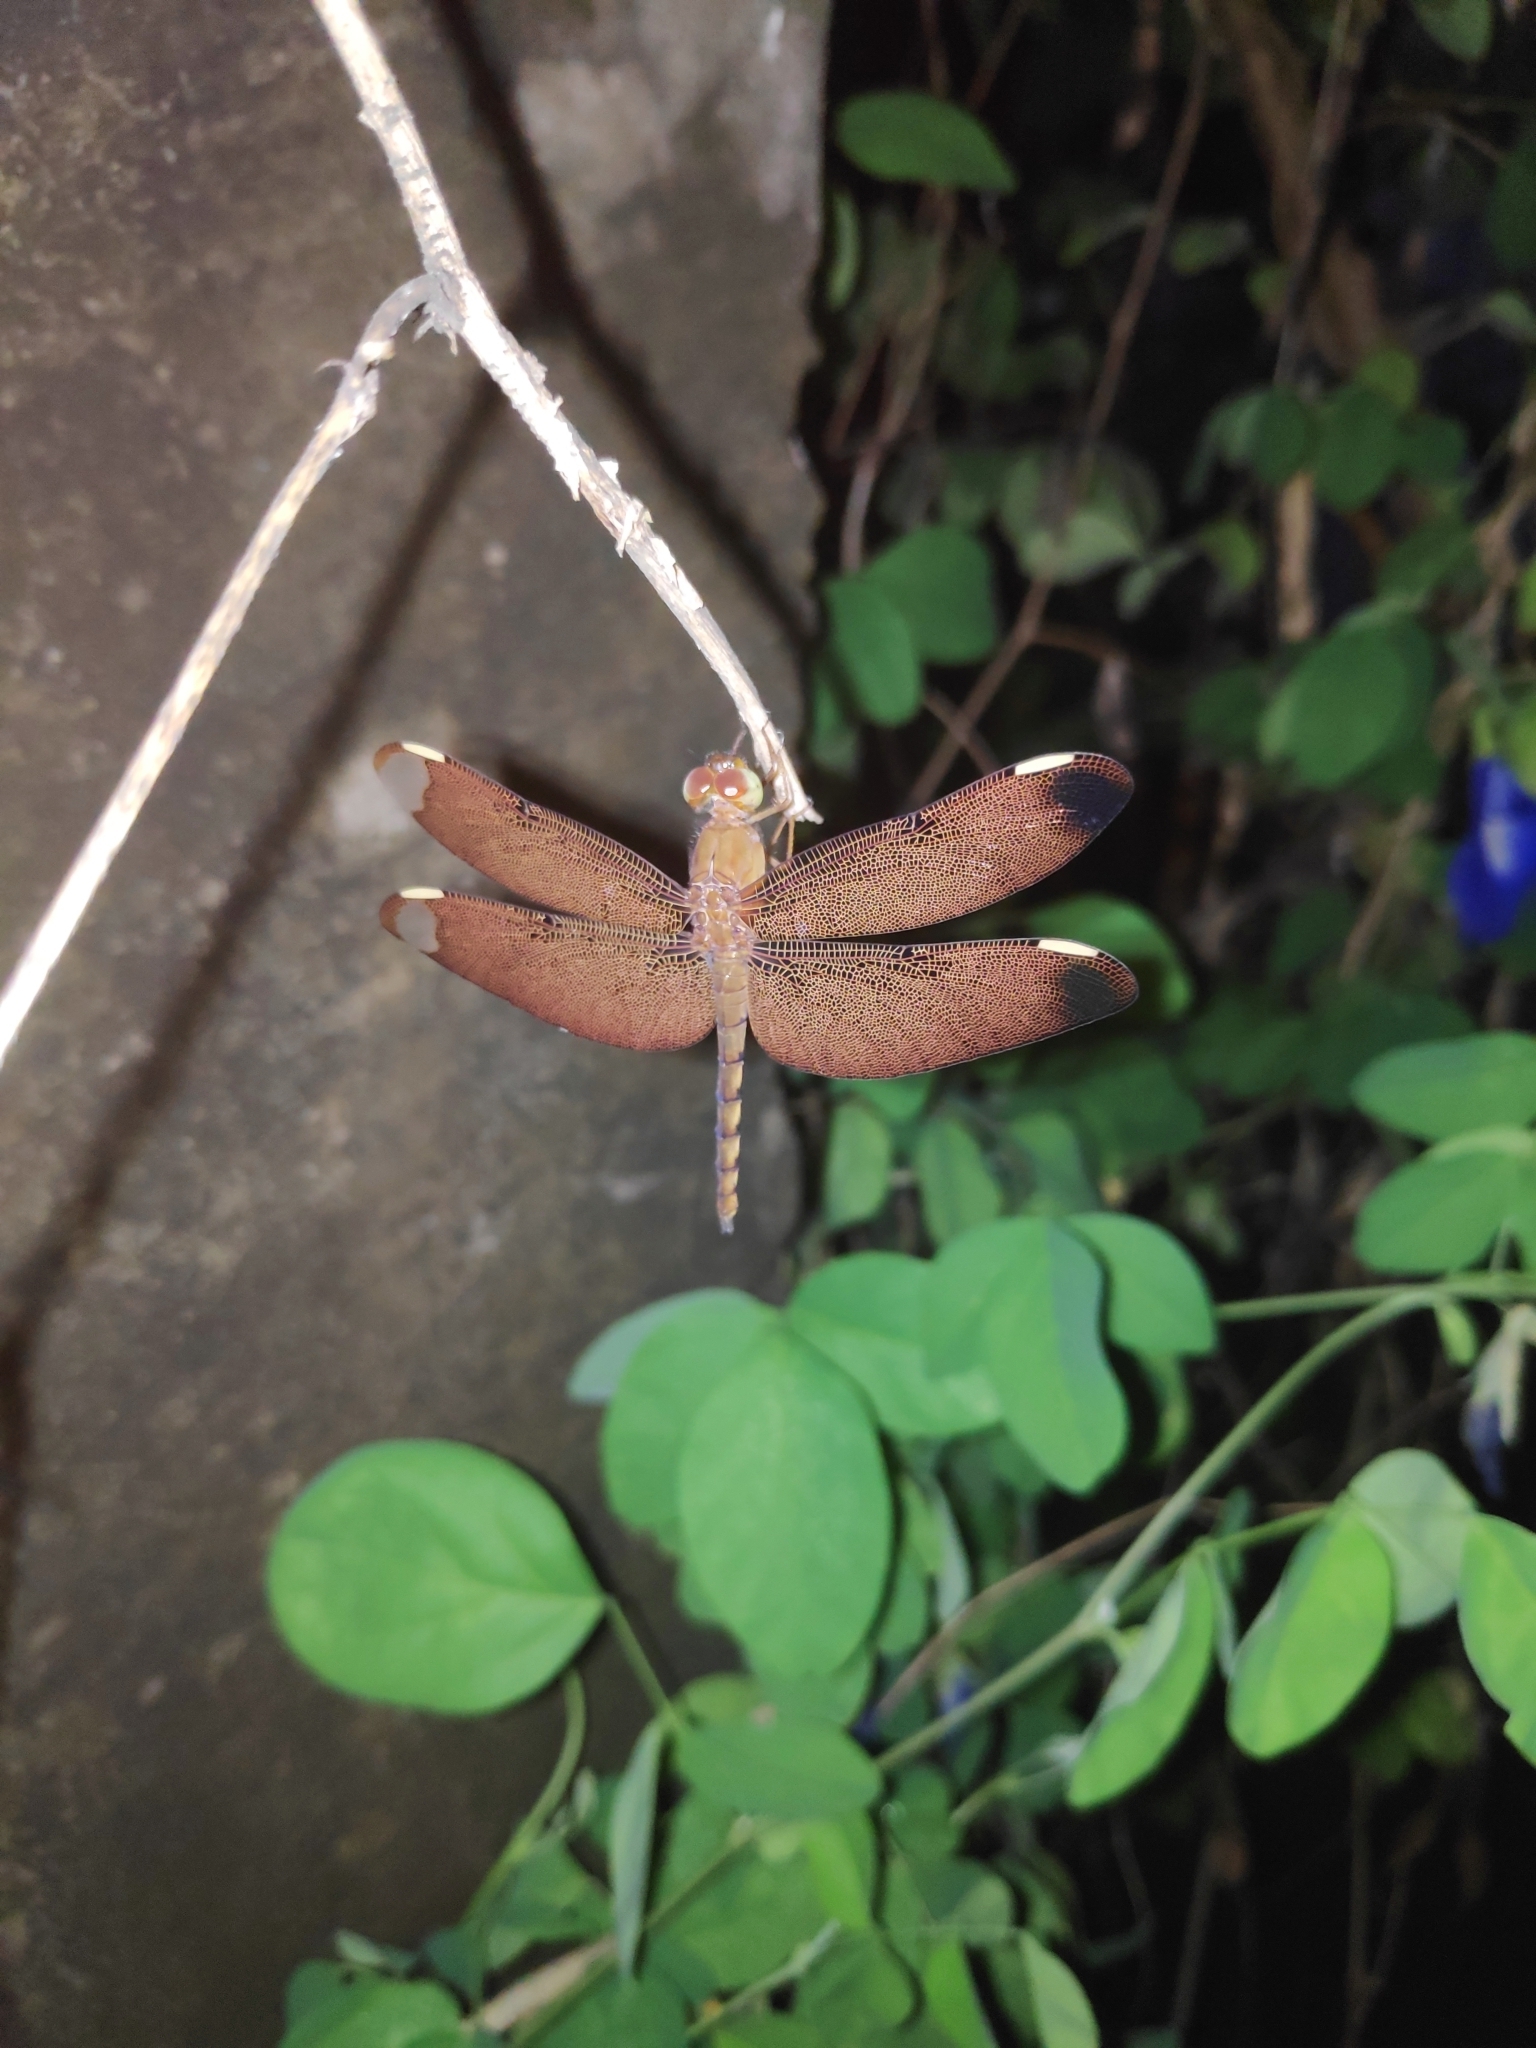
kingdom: Animalia
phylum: Arthropoda
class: Insecta
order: Odonata
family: Libellulidae
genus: Neurothemis
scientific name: Neurothemis fulvia
